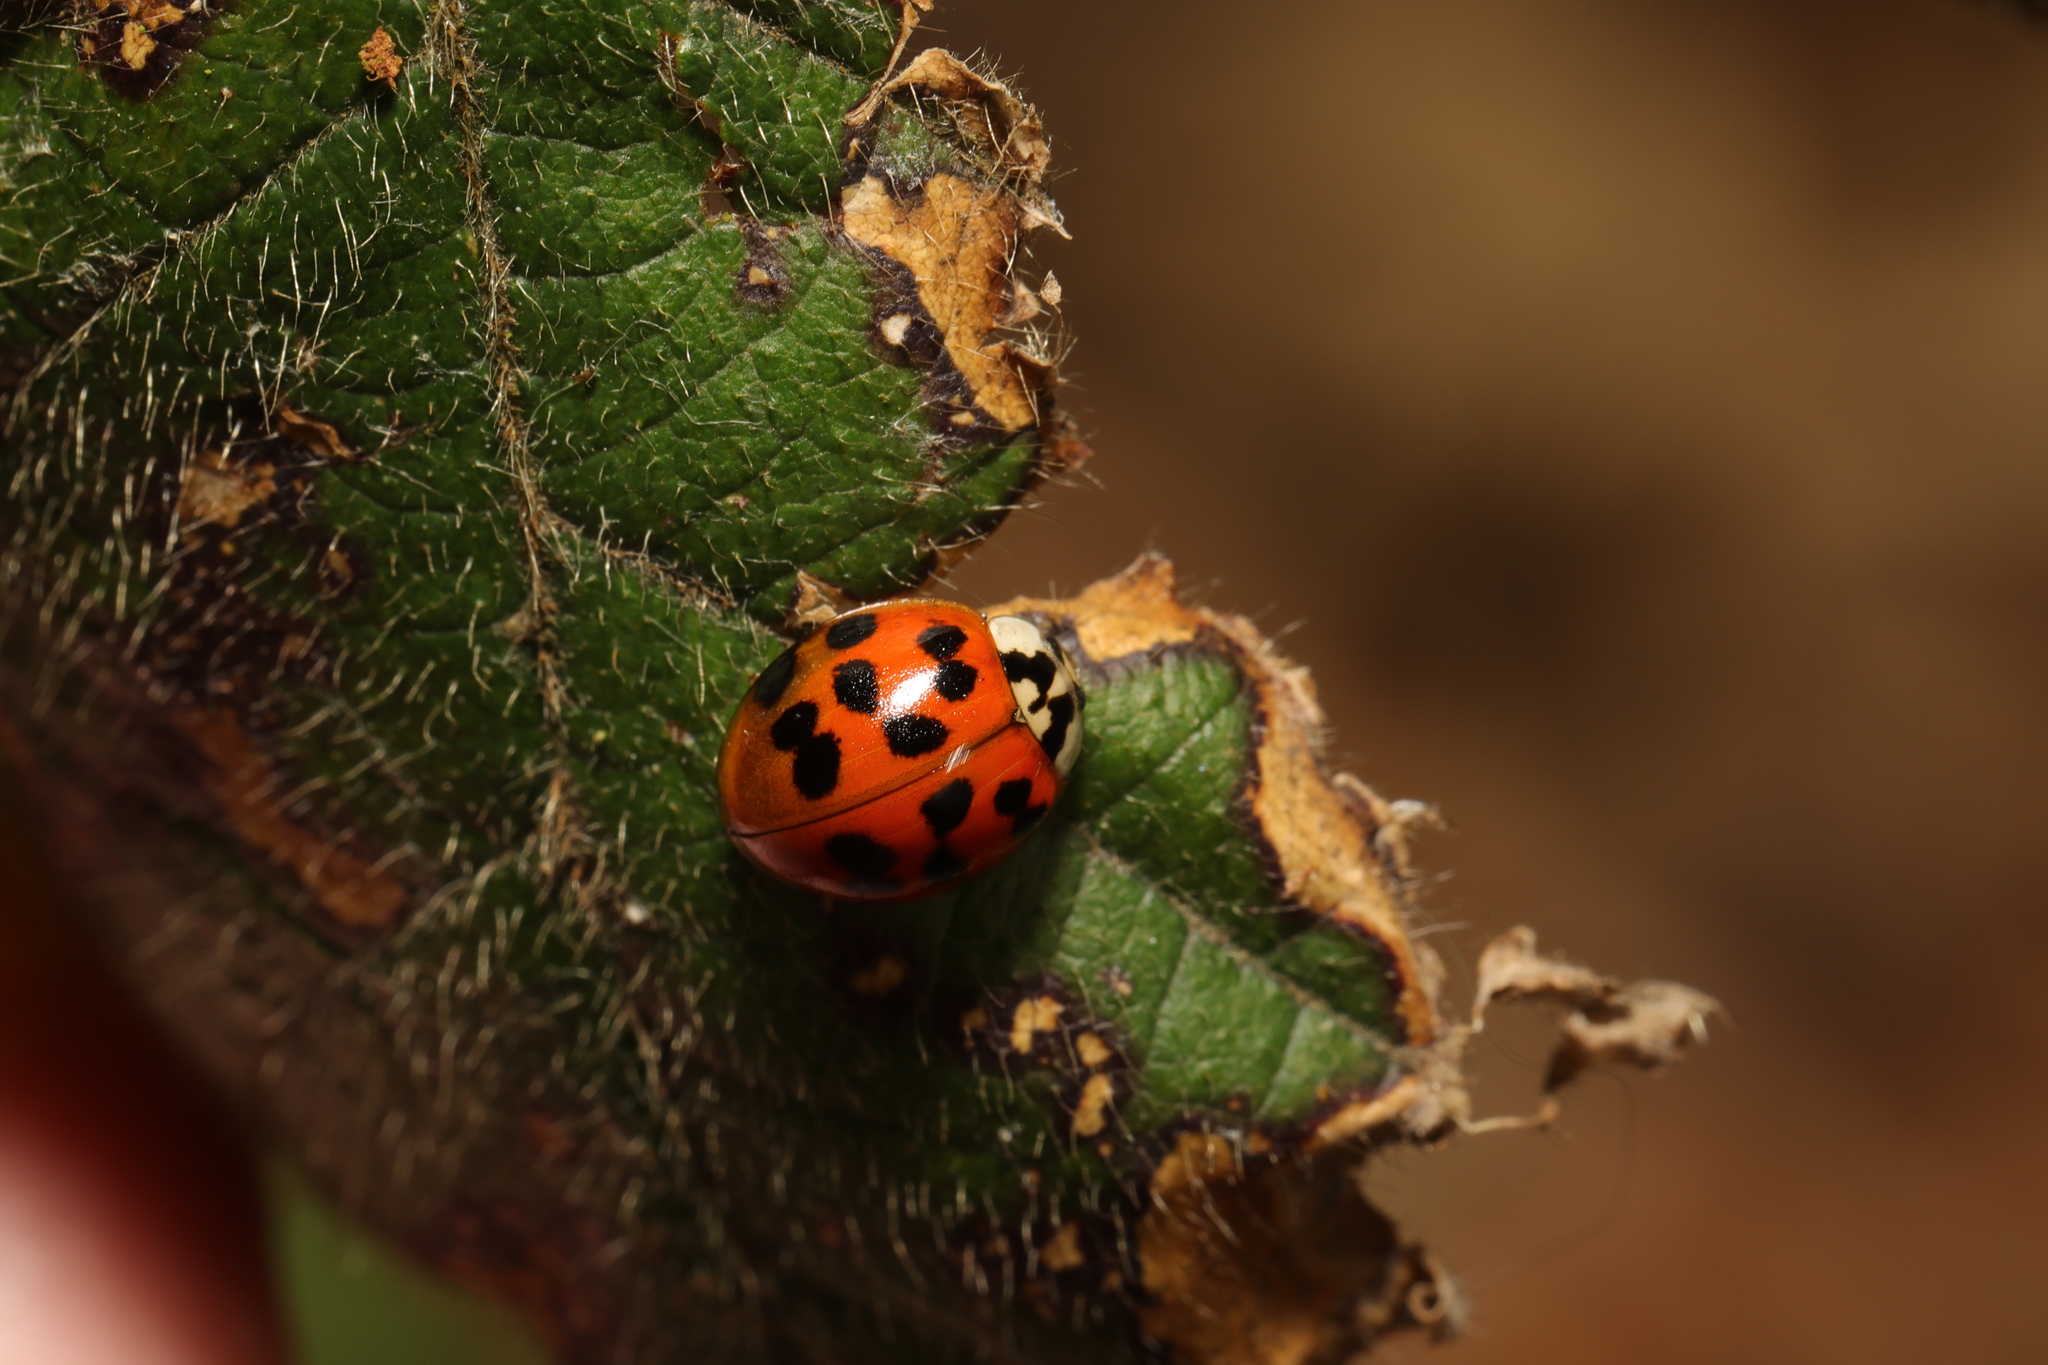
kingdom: Animalia
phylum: Arthropoda
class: Insecta
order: Coleoptera
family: Coccinellidae
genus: Harmonia
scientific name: Harmonia axyridis
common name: Harlequin ladybird
